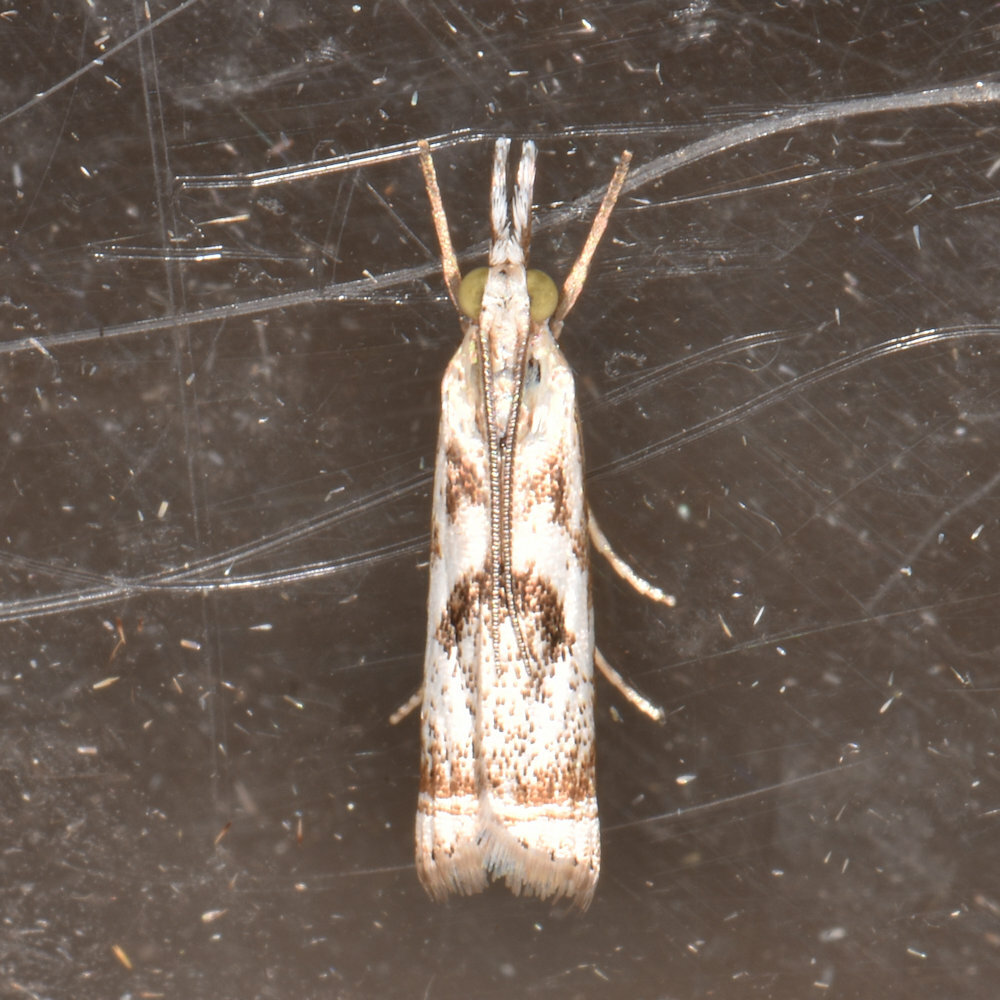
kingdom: Animalia
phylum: Arthropoda
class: Insecta
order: Lepidoptera
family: Crambidae
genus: Microcrambus
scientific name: Microcrambus elegans
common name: Elegant grass-veneer
